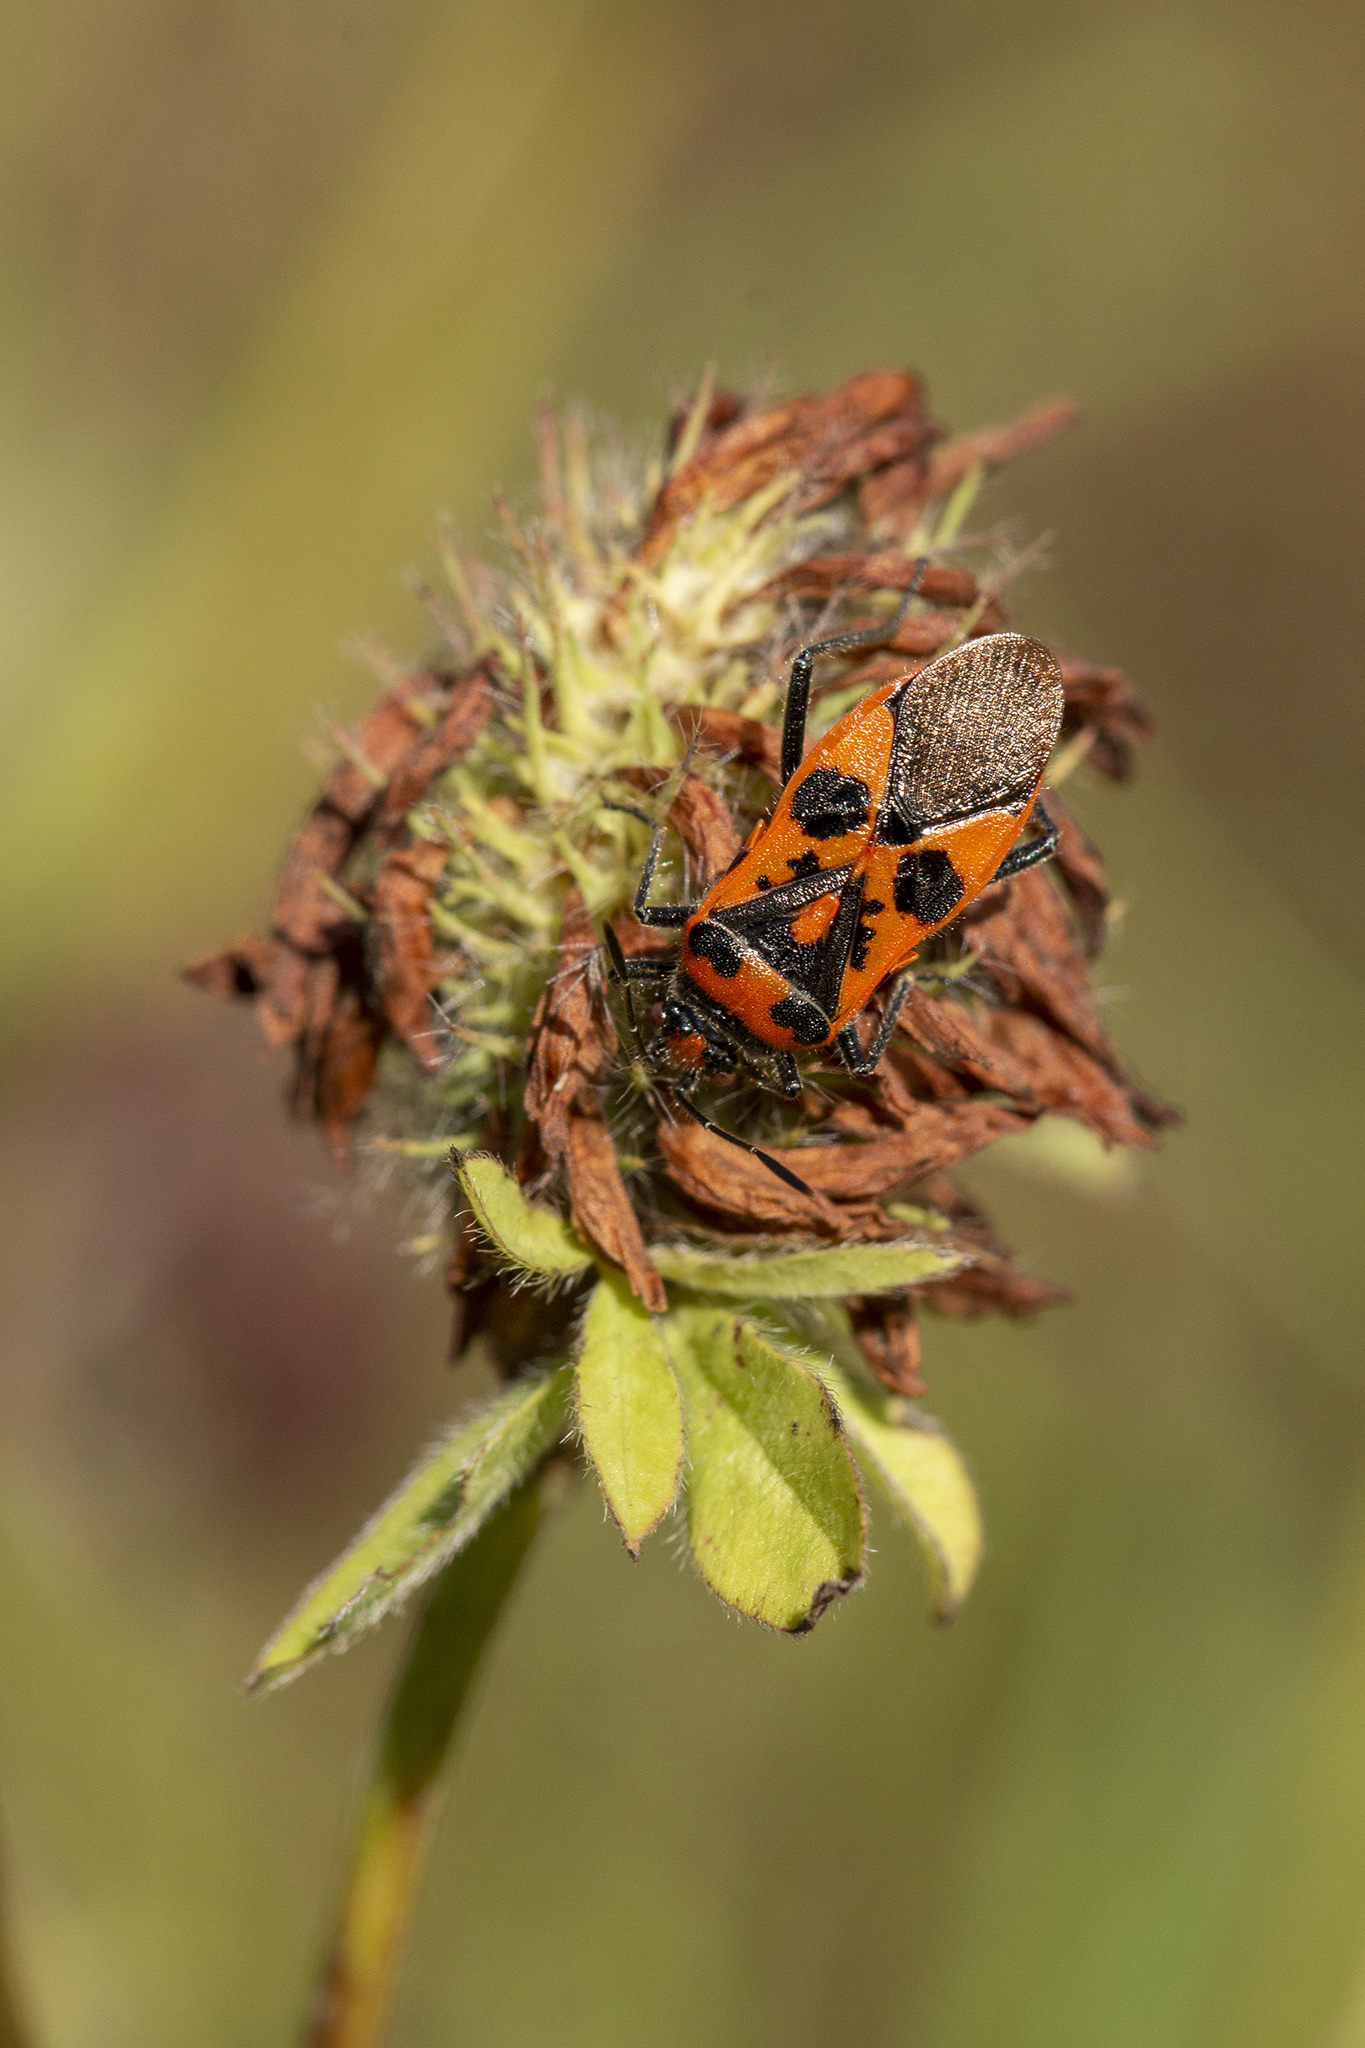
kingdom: Animalia
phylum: Arthropoda
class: Insecta
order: Hemiptera
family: Rhopalidae
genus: Corizus
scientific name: Corizus hyoscyami
